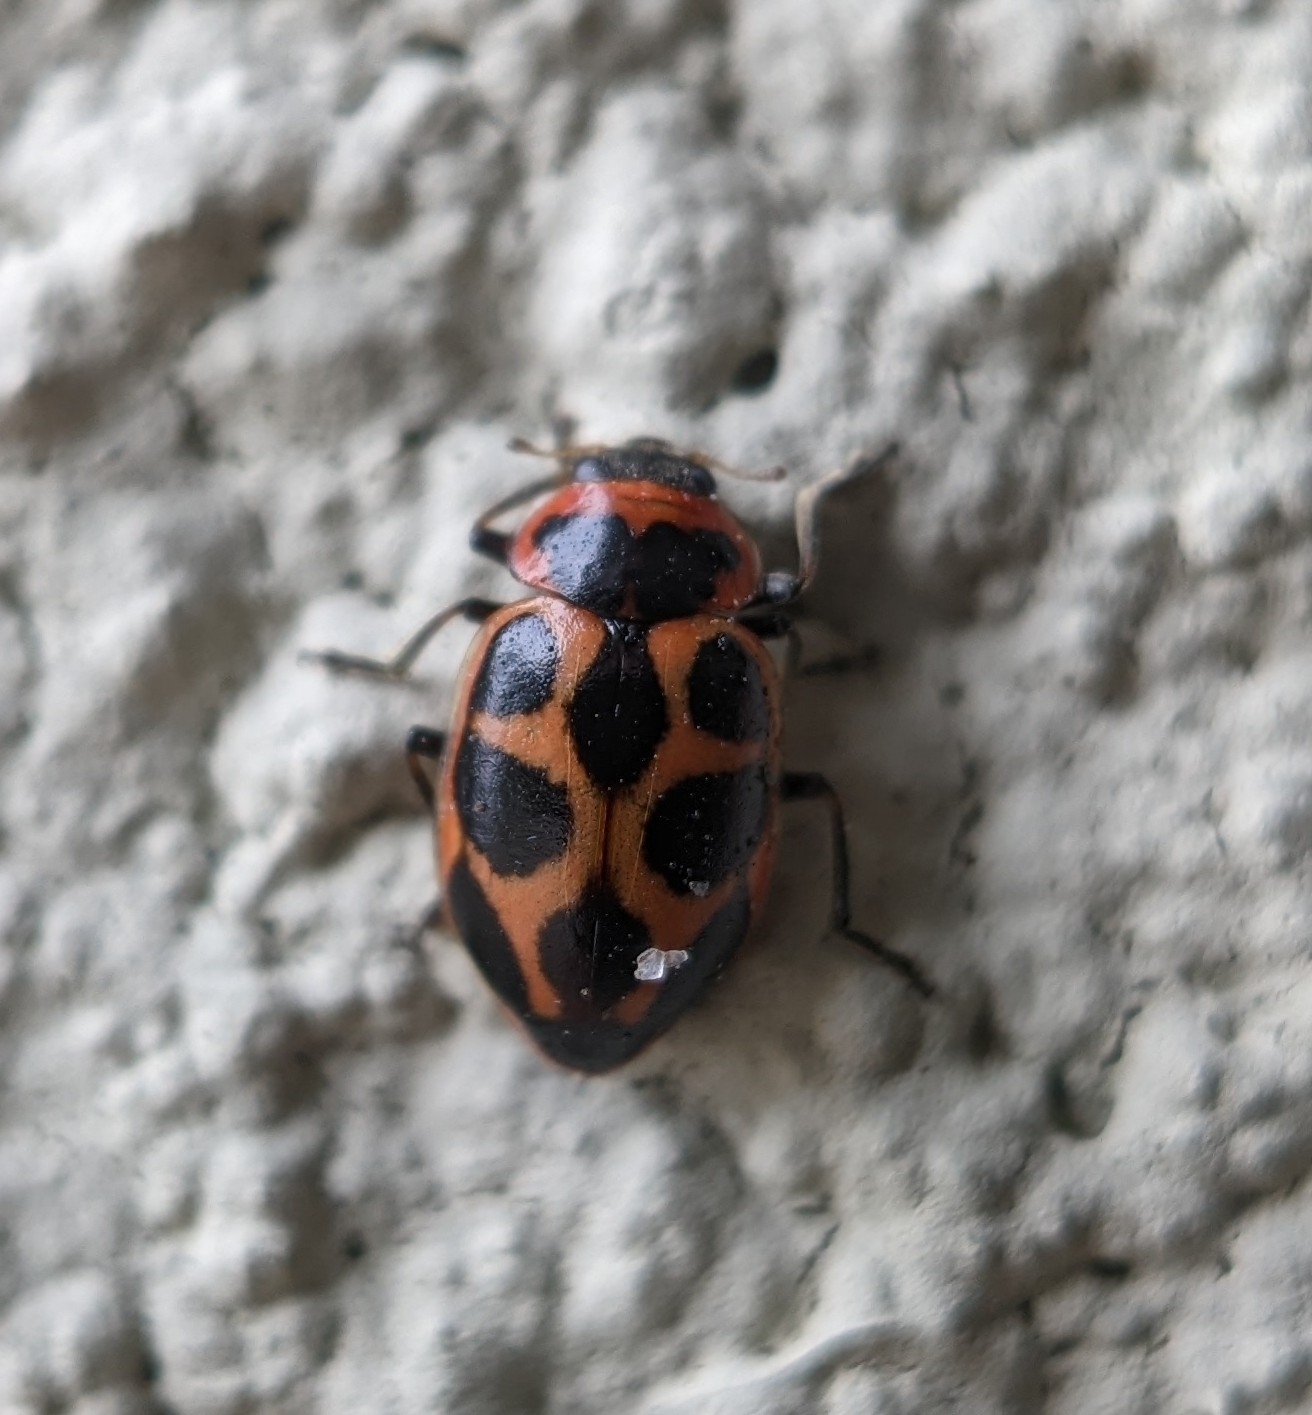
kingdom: Animalia
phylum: Arthropoda
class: Insecta
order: Coleoptera
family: Coccinellidae
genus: Naemia
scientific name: Naemia seriata
